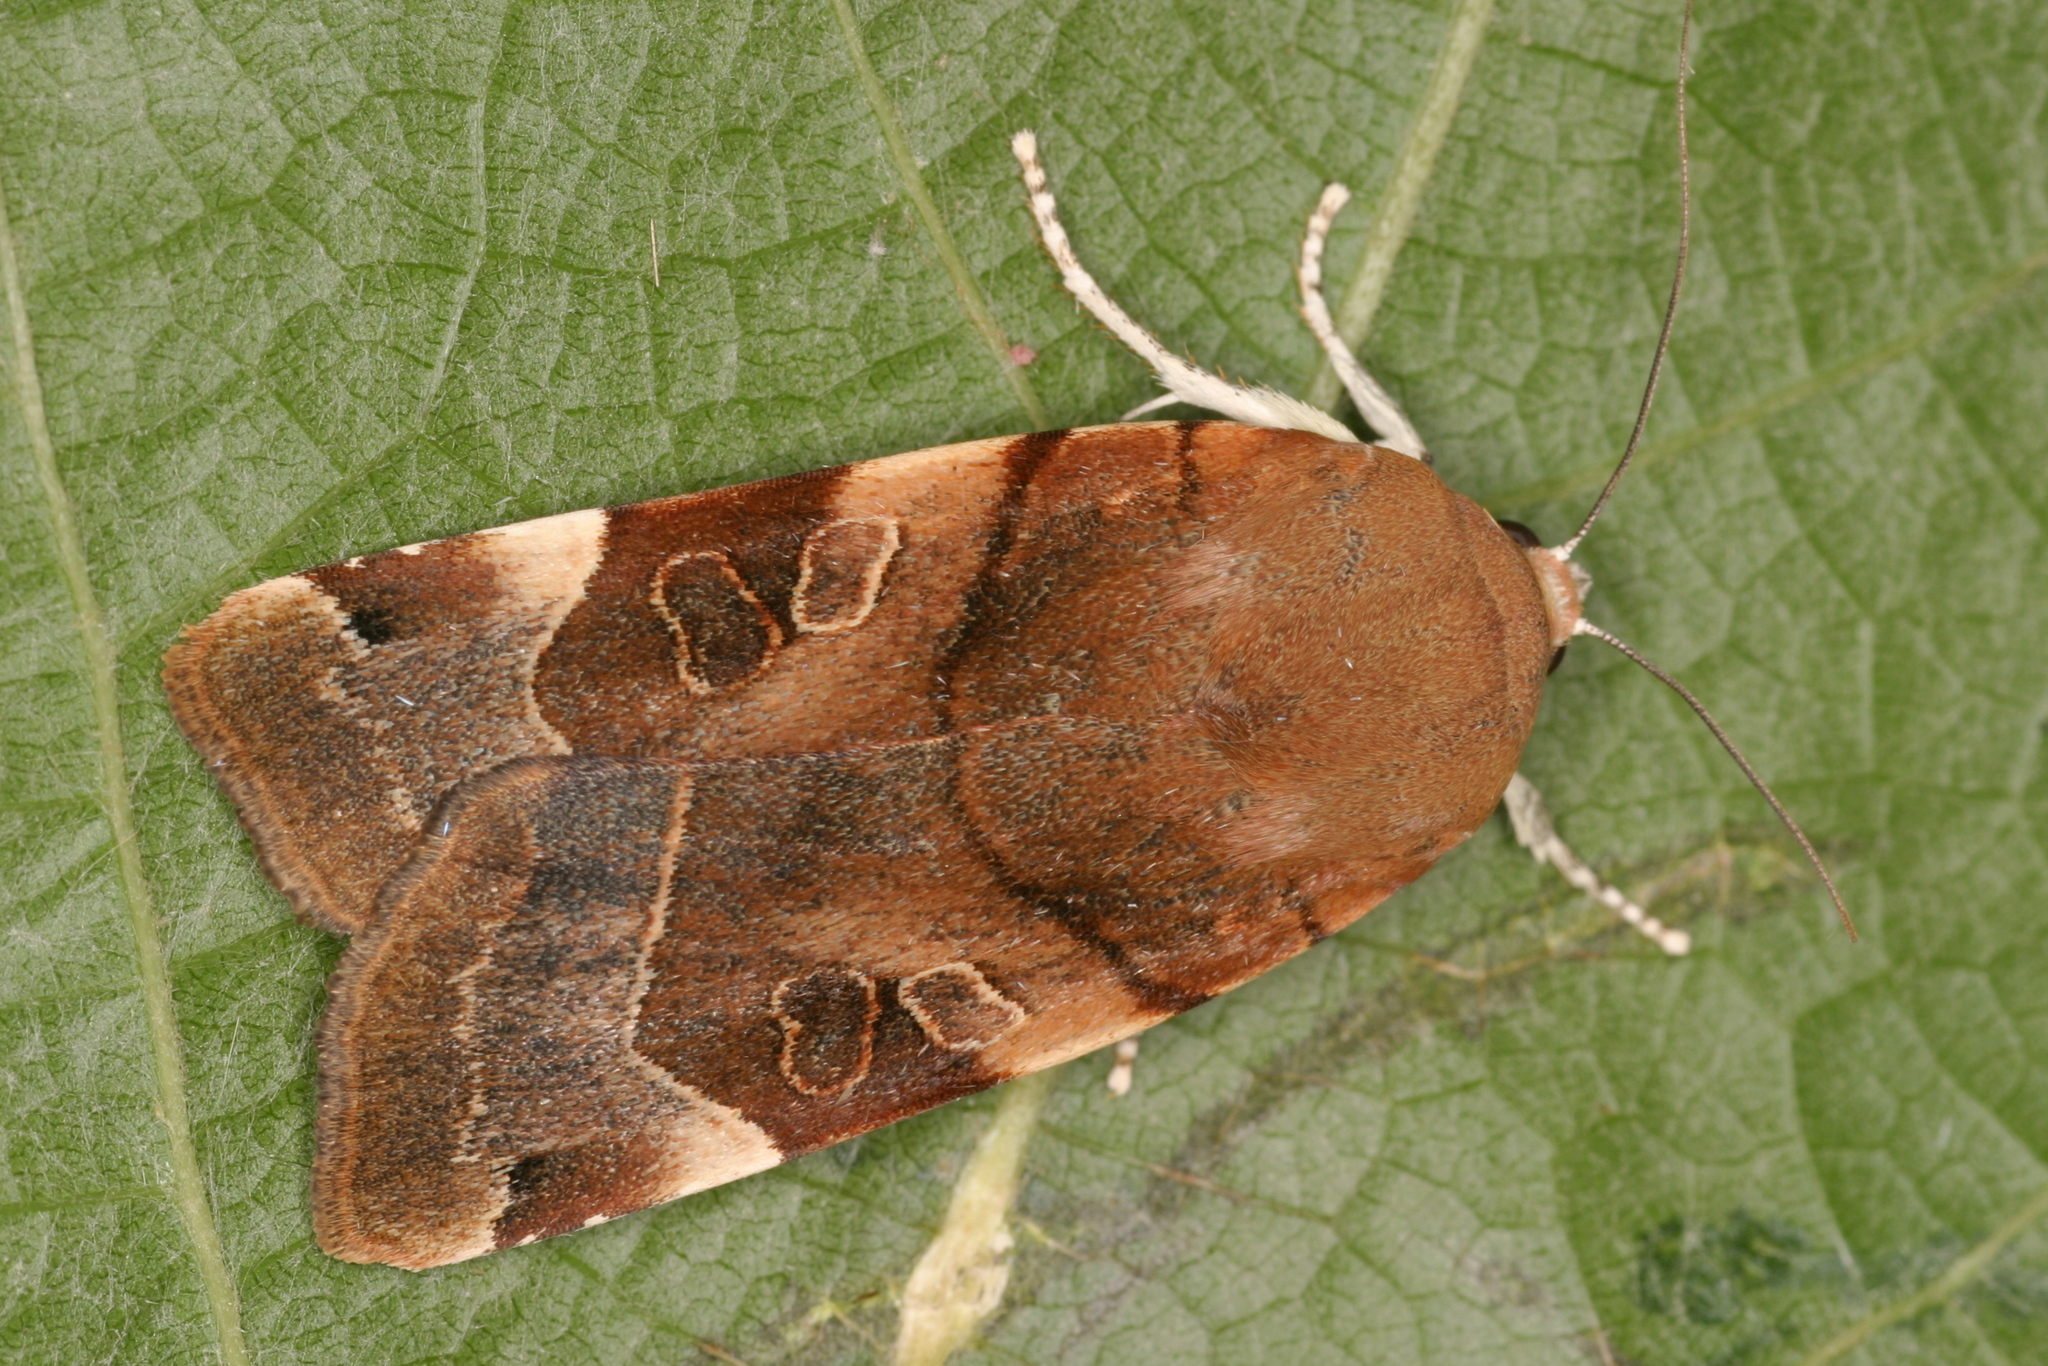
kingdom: Animalia
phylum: Arthropoda
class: Insecta
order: Lepidoptera
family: Noctuidae
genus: Noctua
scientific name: Noctua fimbriata
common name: Broad-bordered yellow underwing
